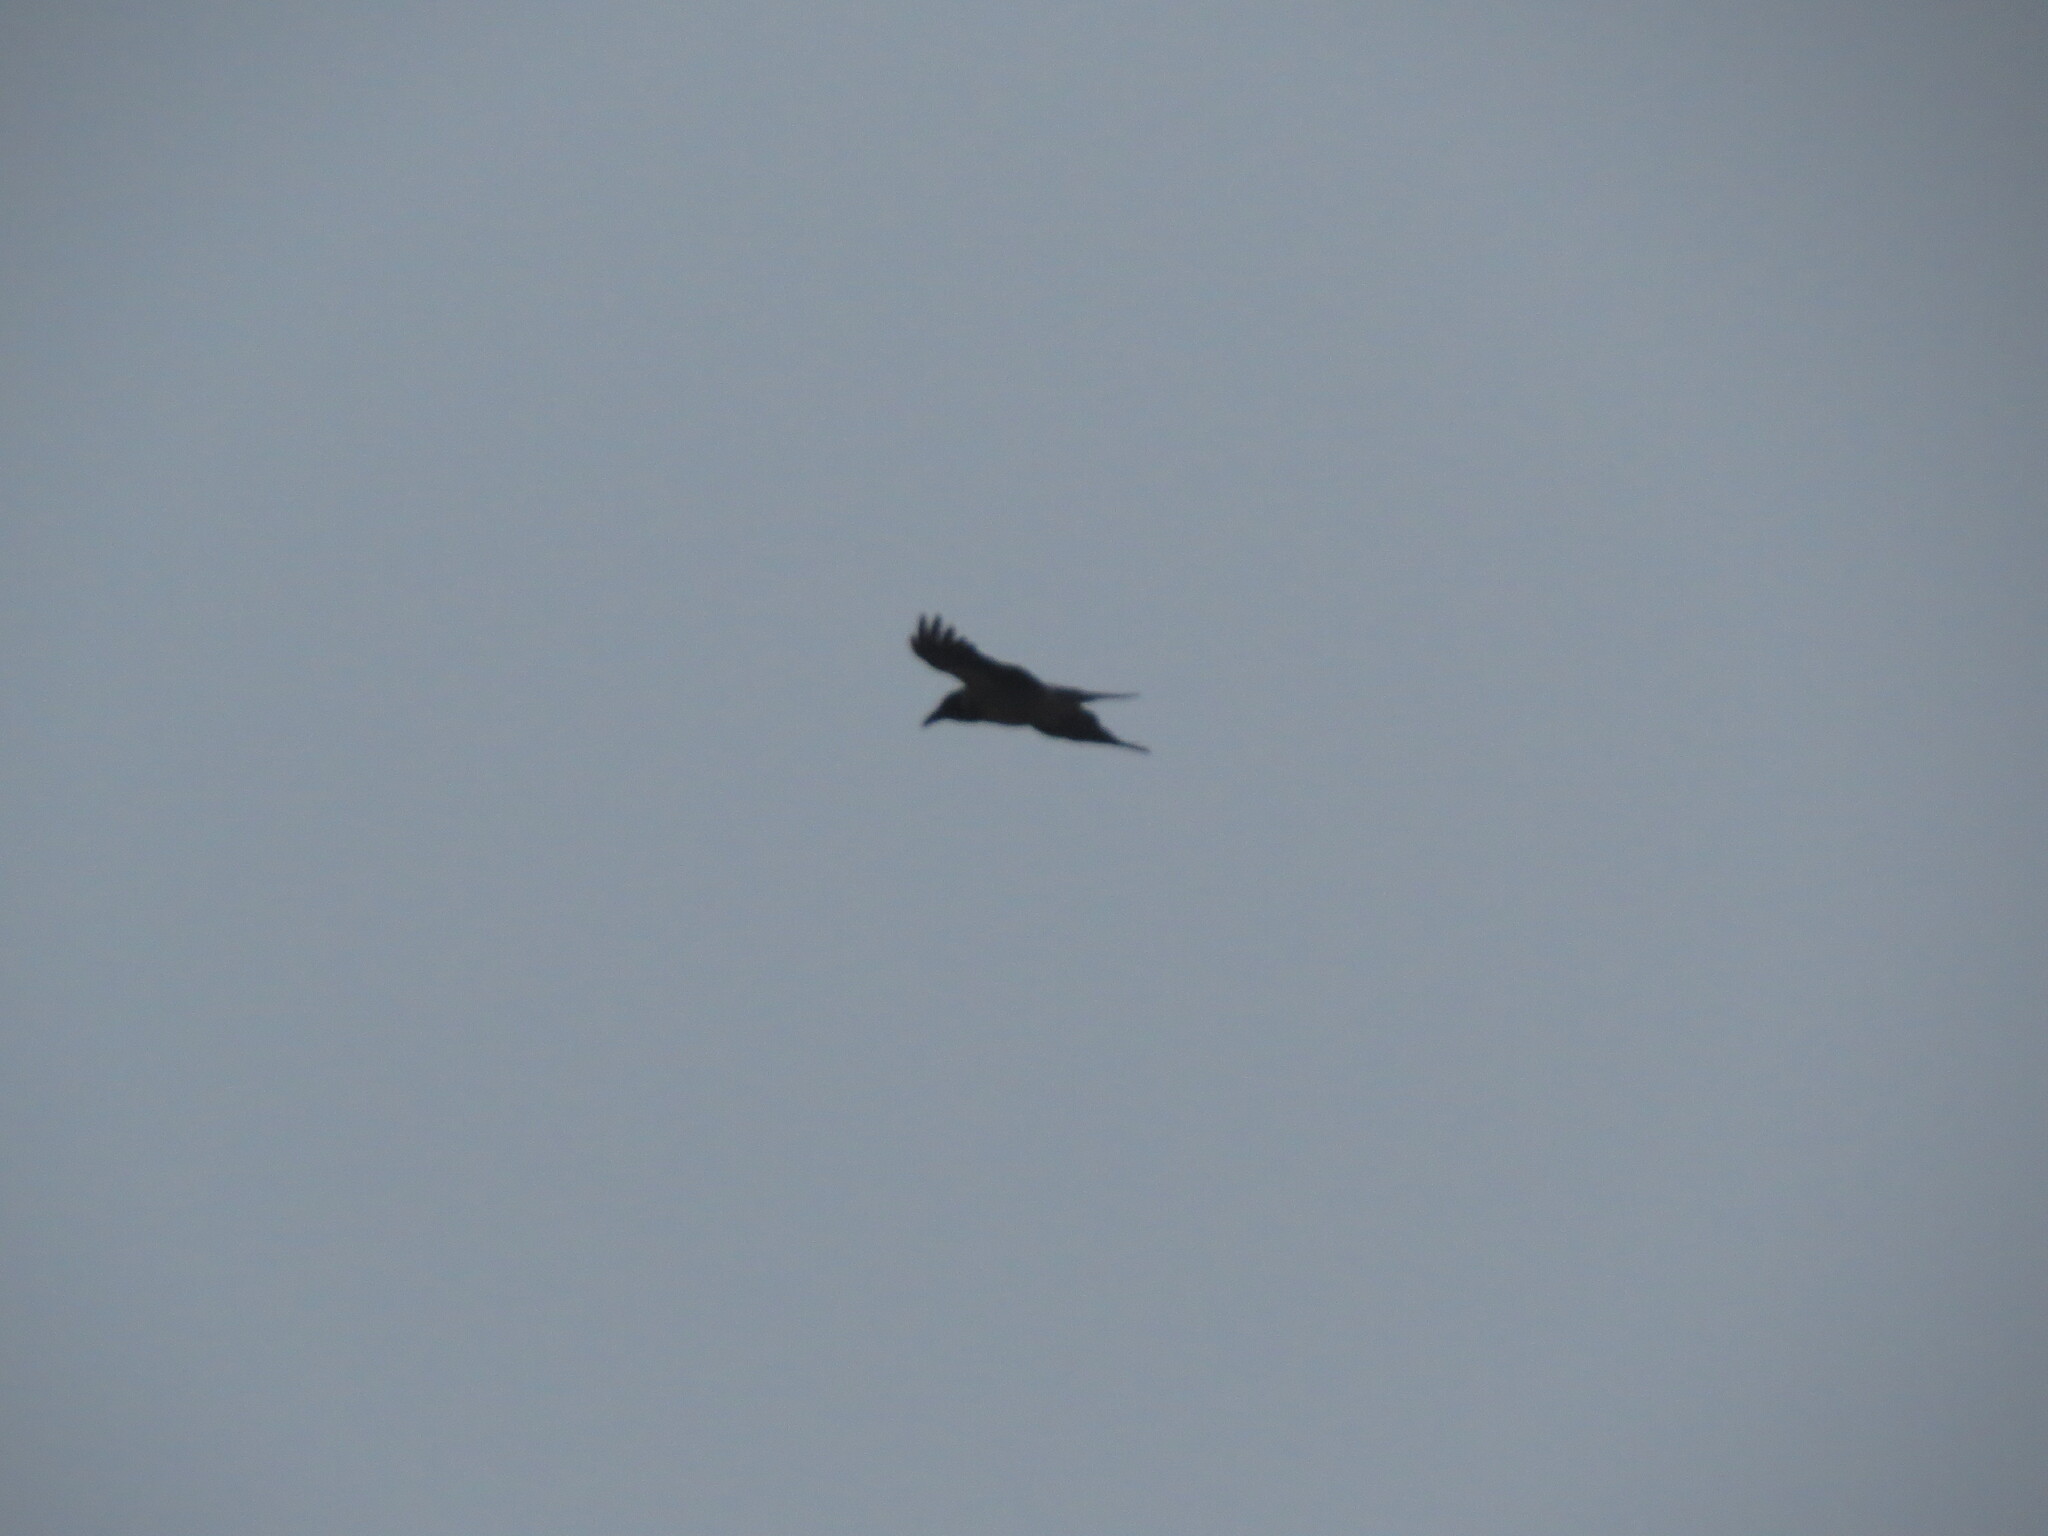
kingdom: Animalia
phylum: Chordata
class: Aves
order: Passeriformes
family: Corvidae
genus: Corvus
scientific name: Corvus corax
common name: Common raven
